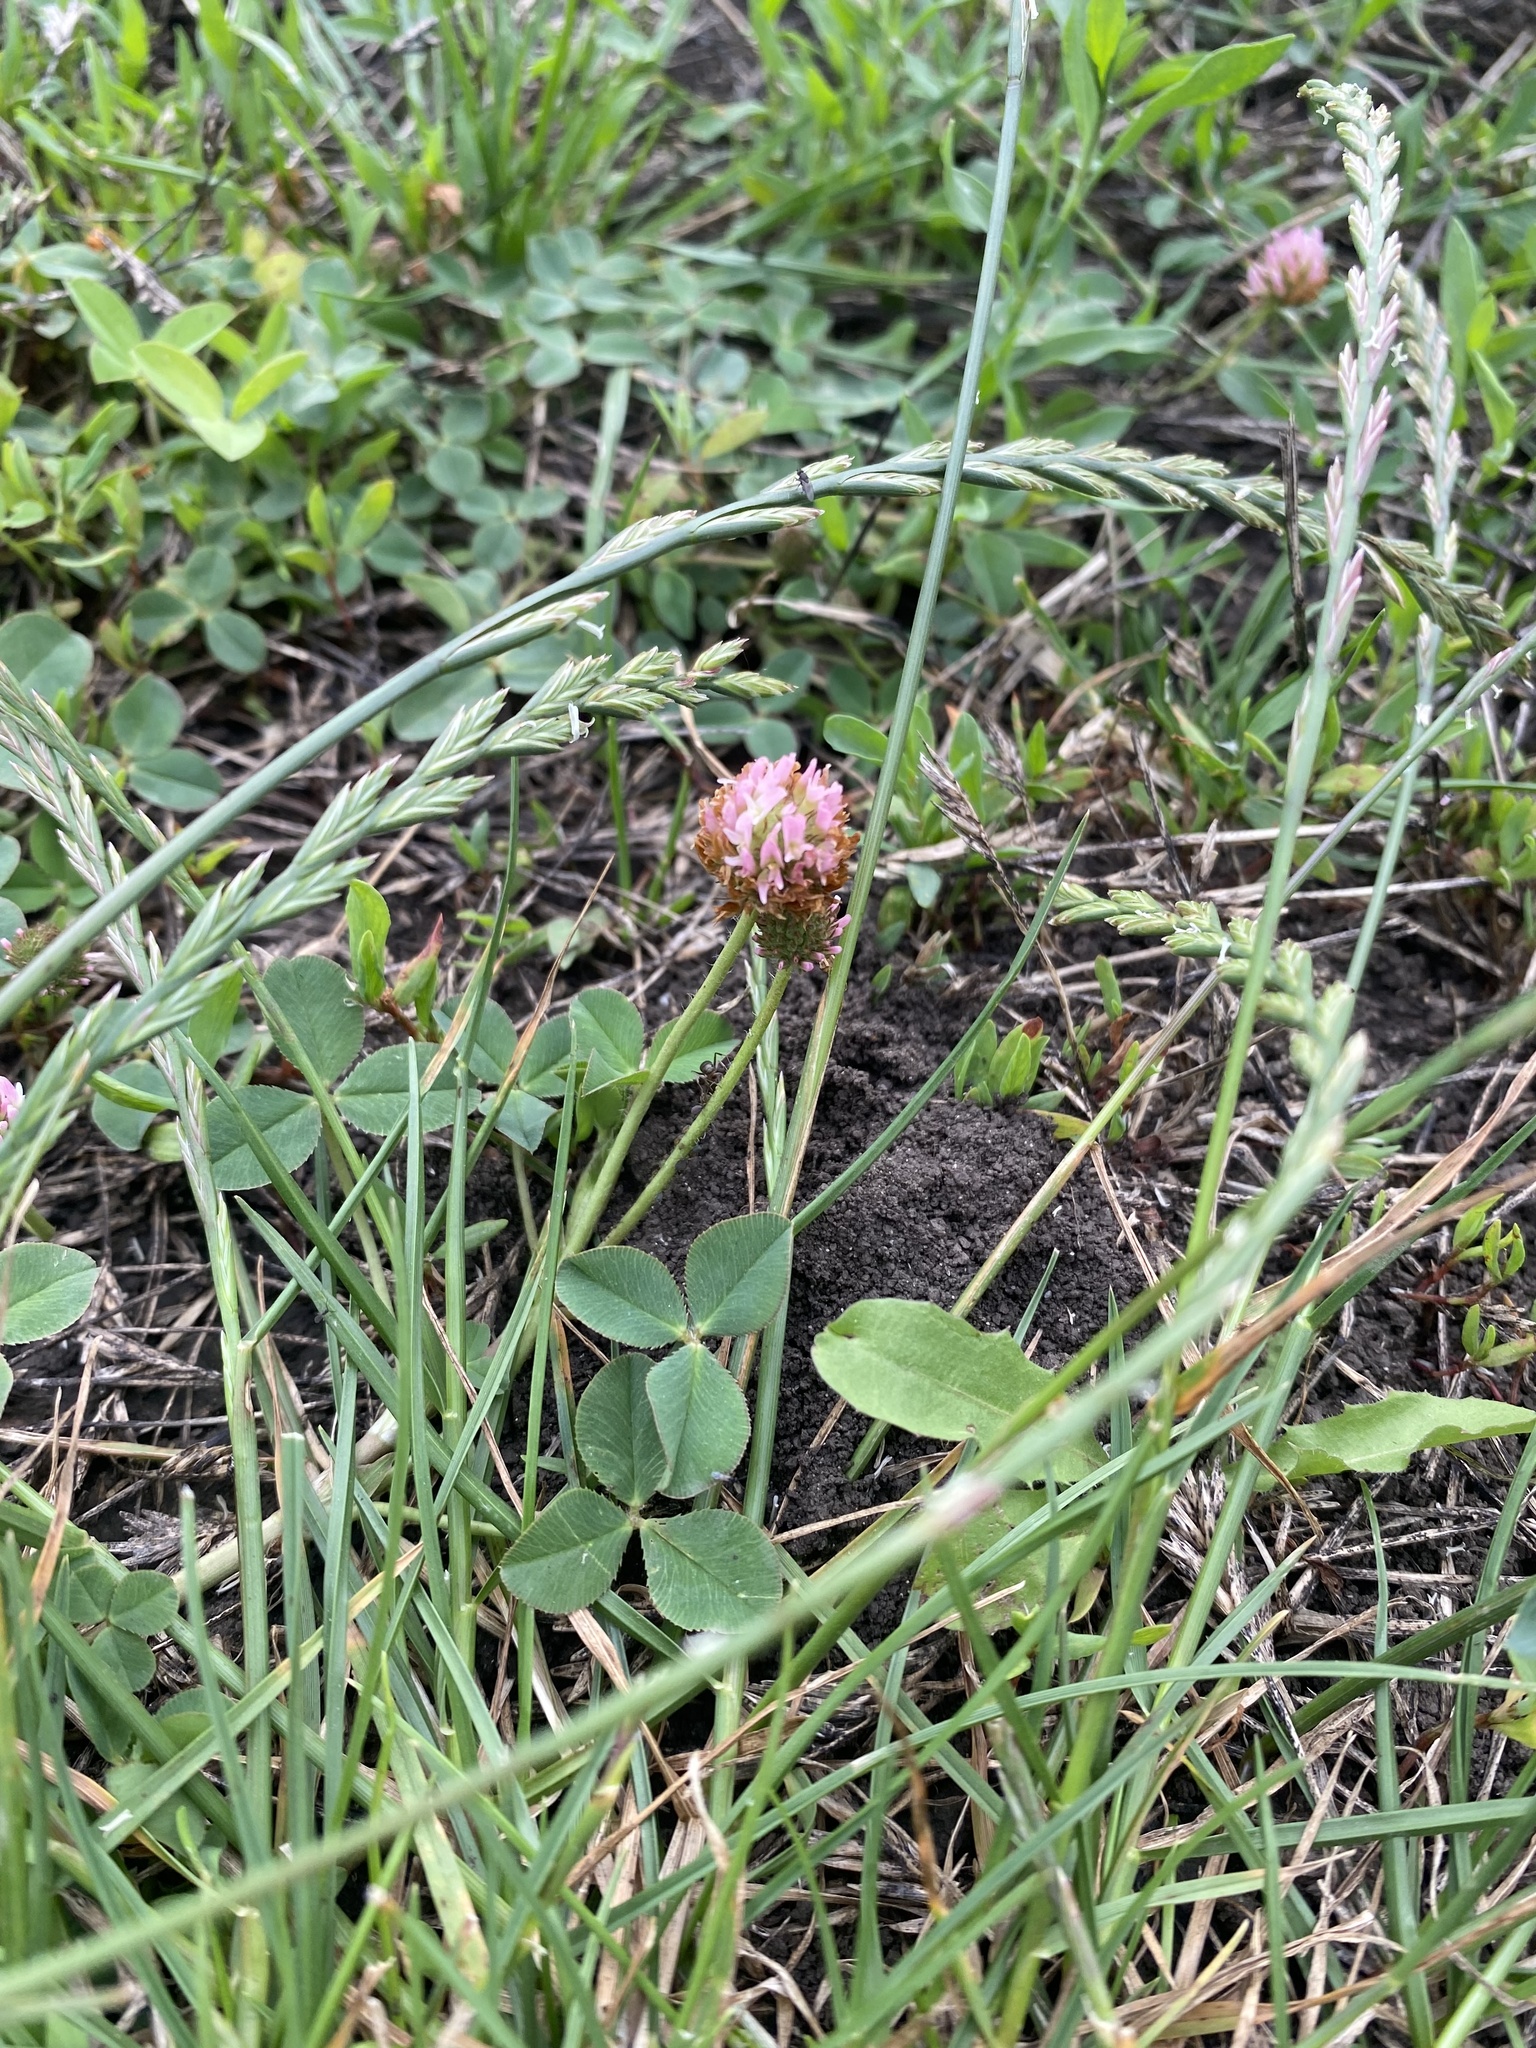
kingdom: Plantae
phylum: Tracheophyta
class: Magnoliopsida
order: Fabales
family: Fabaceae
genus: Trifolium
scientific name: Trifolium fragiferum
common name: Strawberry clover
